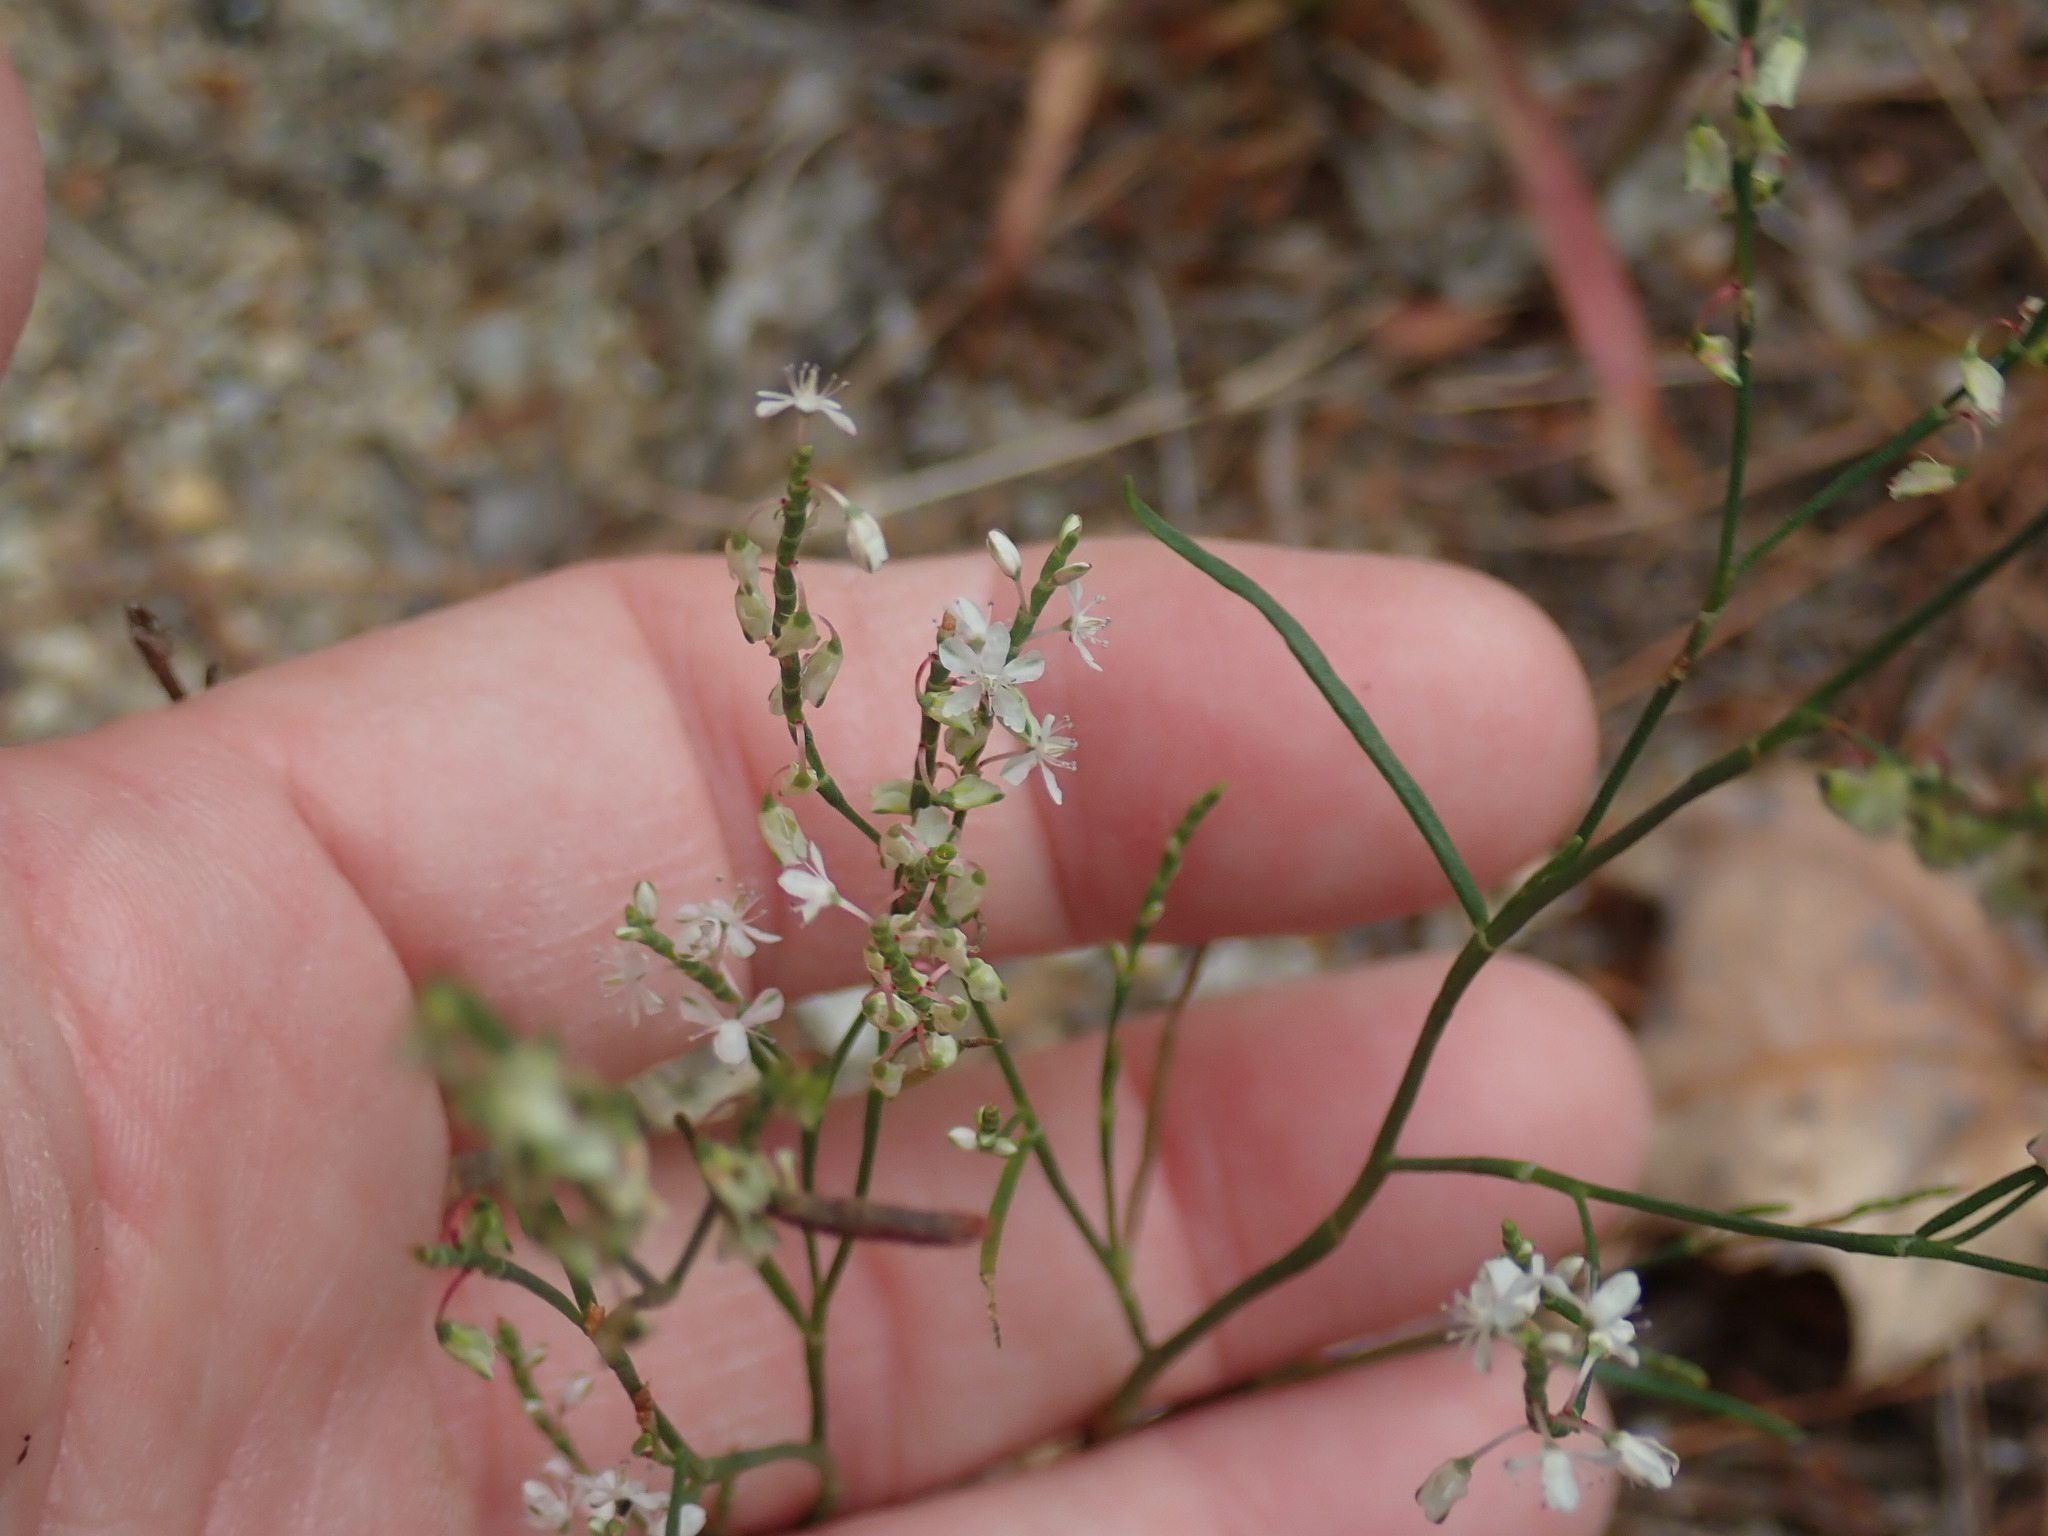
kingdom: Plantae
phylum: Tracheophyta
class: Magnoliopsida
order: Caryophyllales
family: Polygonaceae
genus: Polygonella
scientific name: Polygonella articulata
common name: Coastal jointweed
